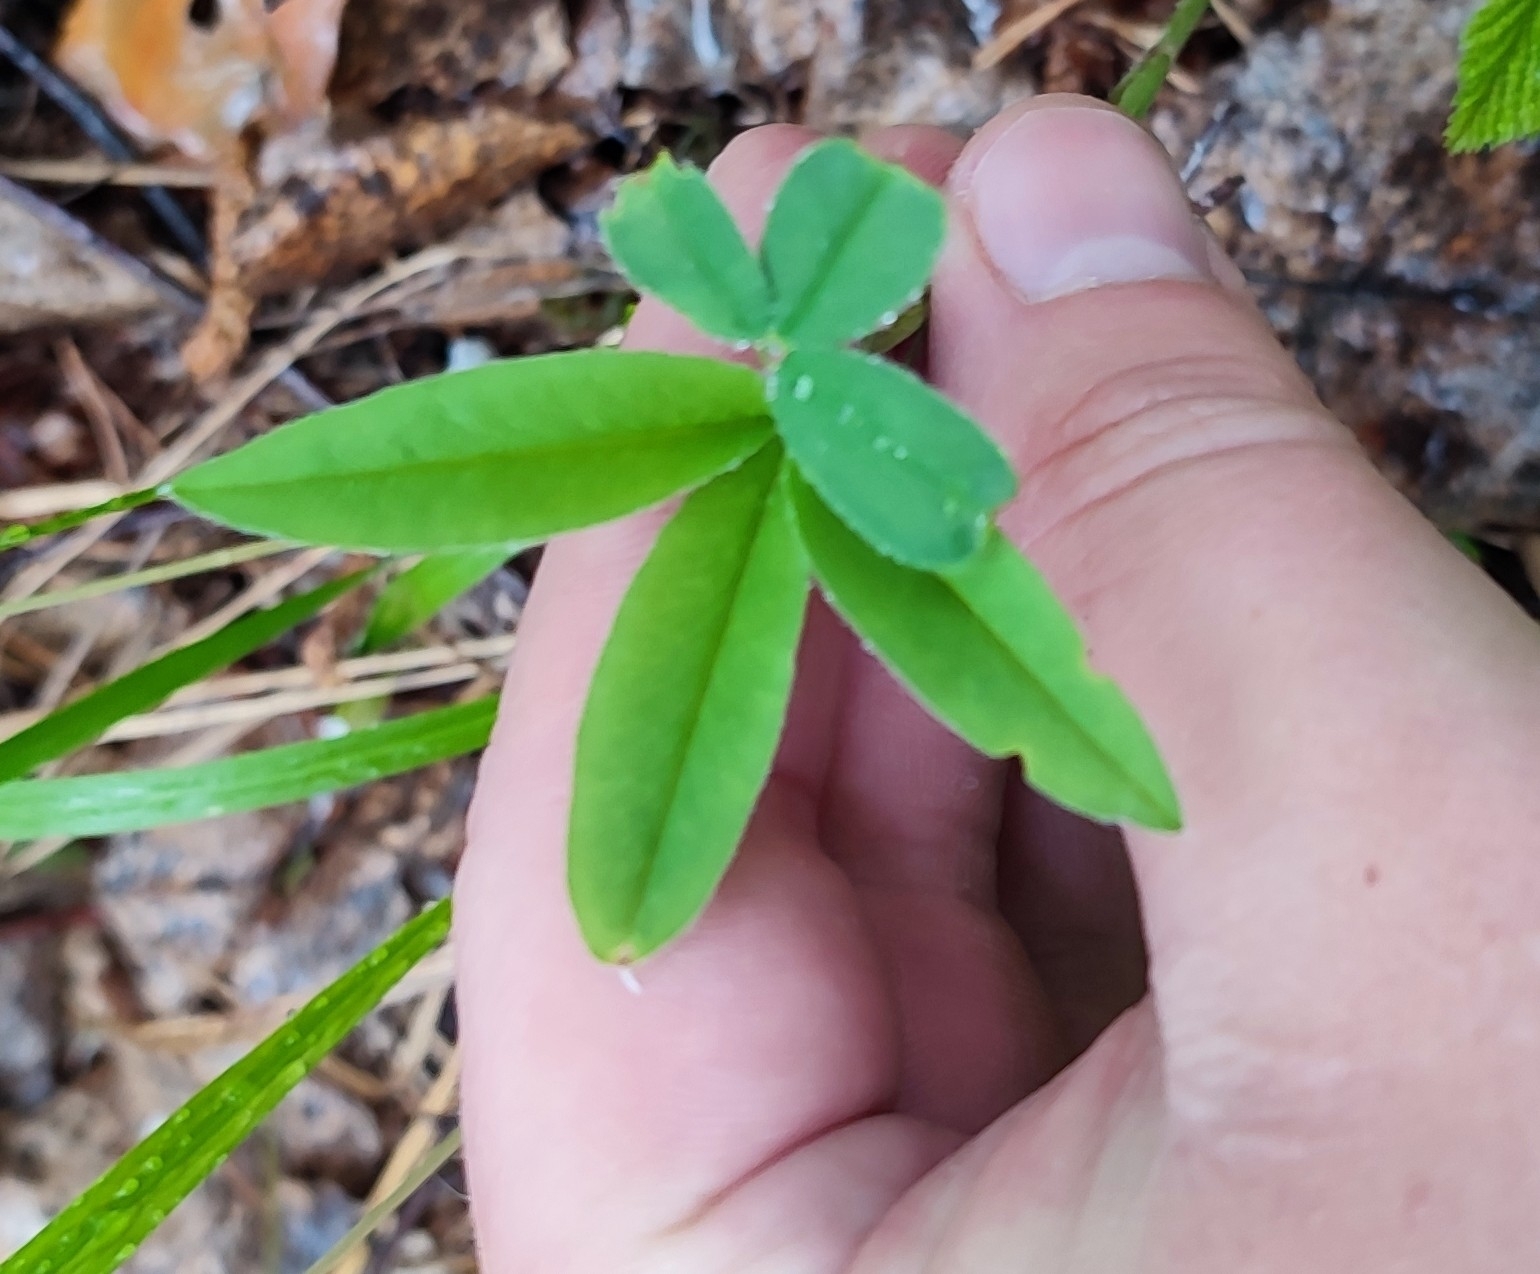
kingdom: Plantae
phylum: Tracheophyta
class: Magnoliopsida
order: Fabales
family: Fabaceae
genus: Trifolium
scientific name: Trifolium medium
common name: Zigzag clover
